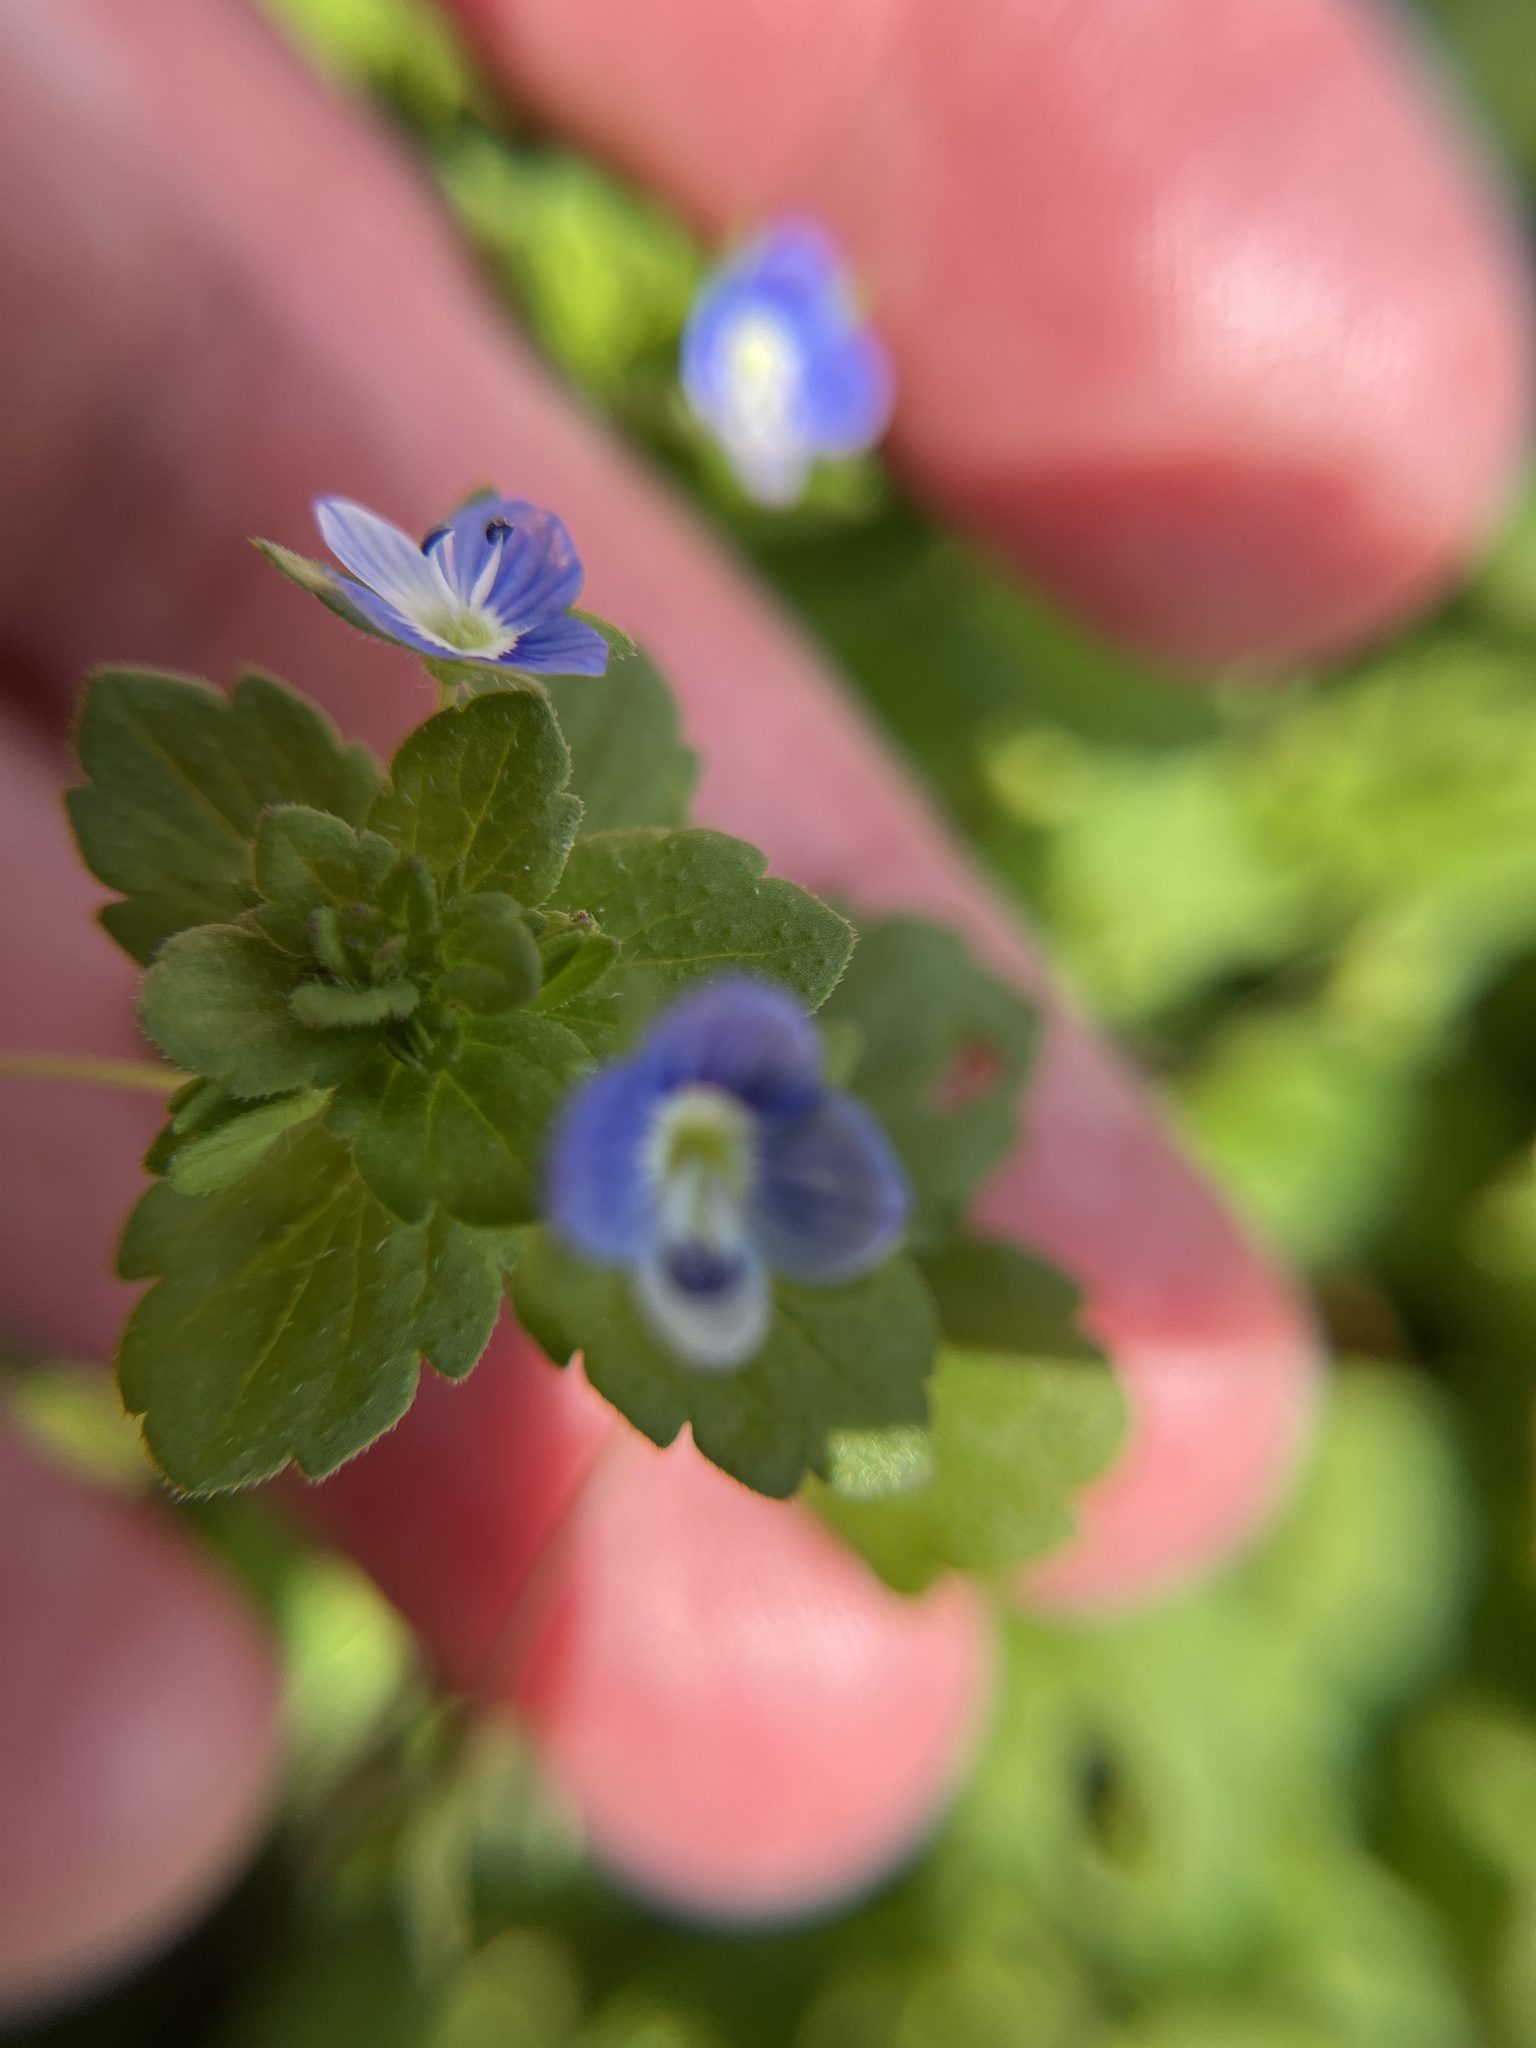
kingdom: Plantae
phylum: Tracheophyta
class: Magnoliopsida
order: Lamiales
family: Plantaginaceae
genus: Veronica
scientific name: Veronica persica
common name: Common field-speedwell
